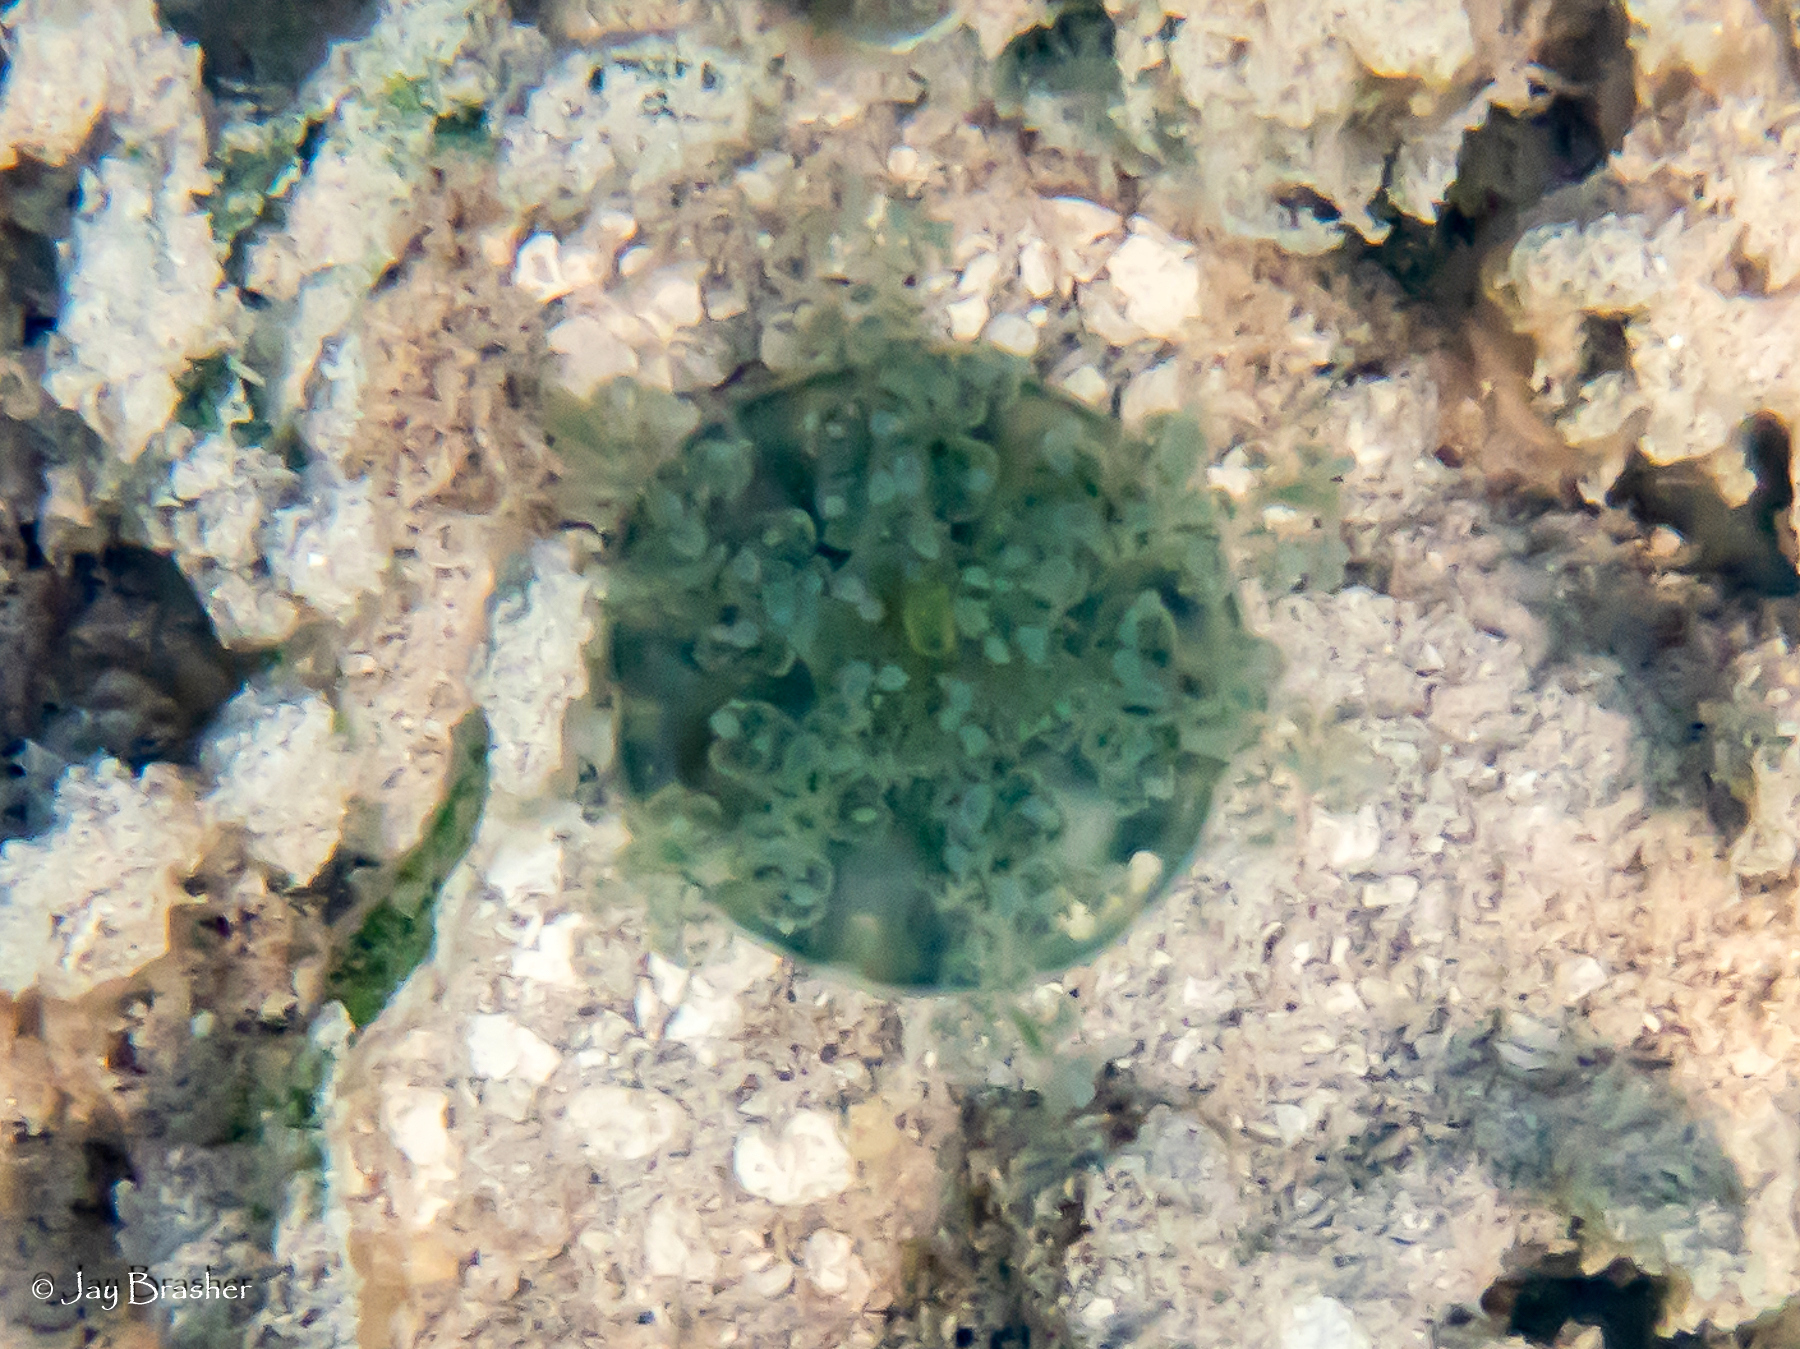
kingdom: Animalia
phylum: Cnidaria
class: Scyphozoa
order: Rhizostomeae
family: Cassiopeidae
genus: Cassiopea
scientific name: Cassiopea andromeda
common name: Upside-down jellyfish
